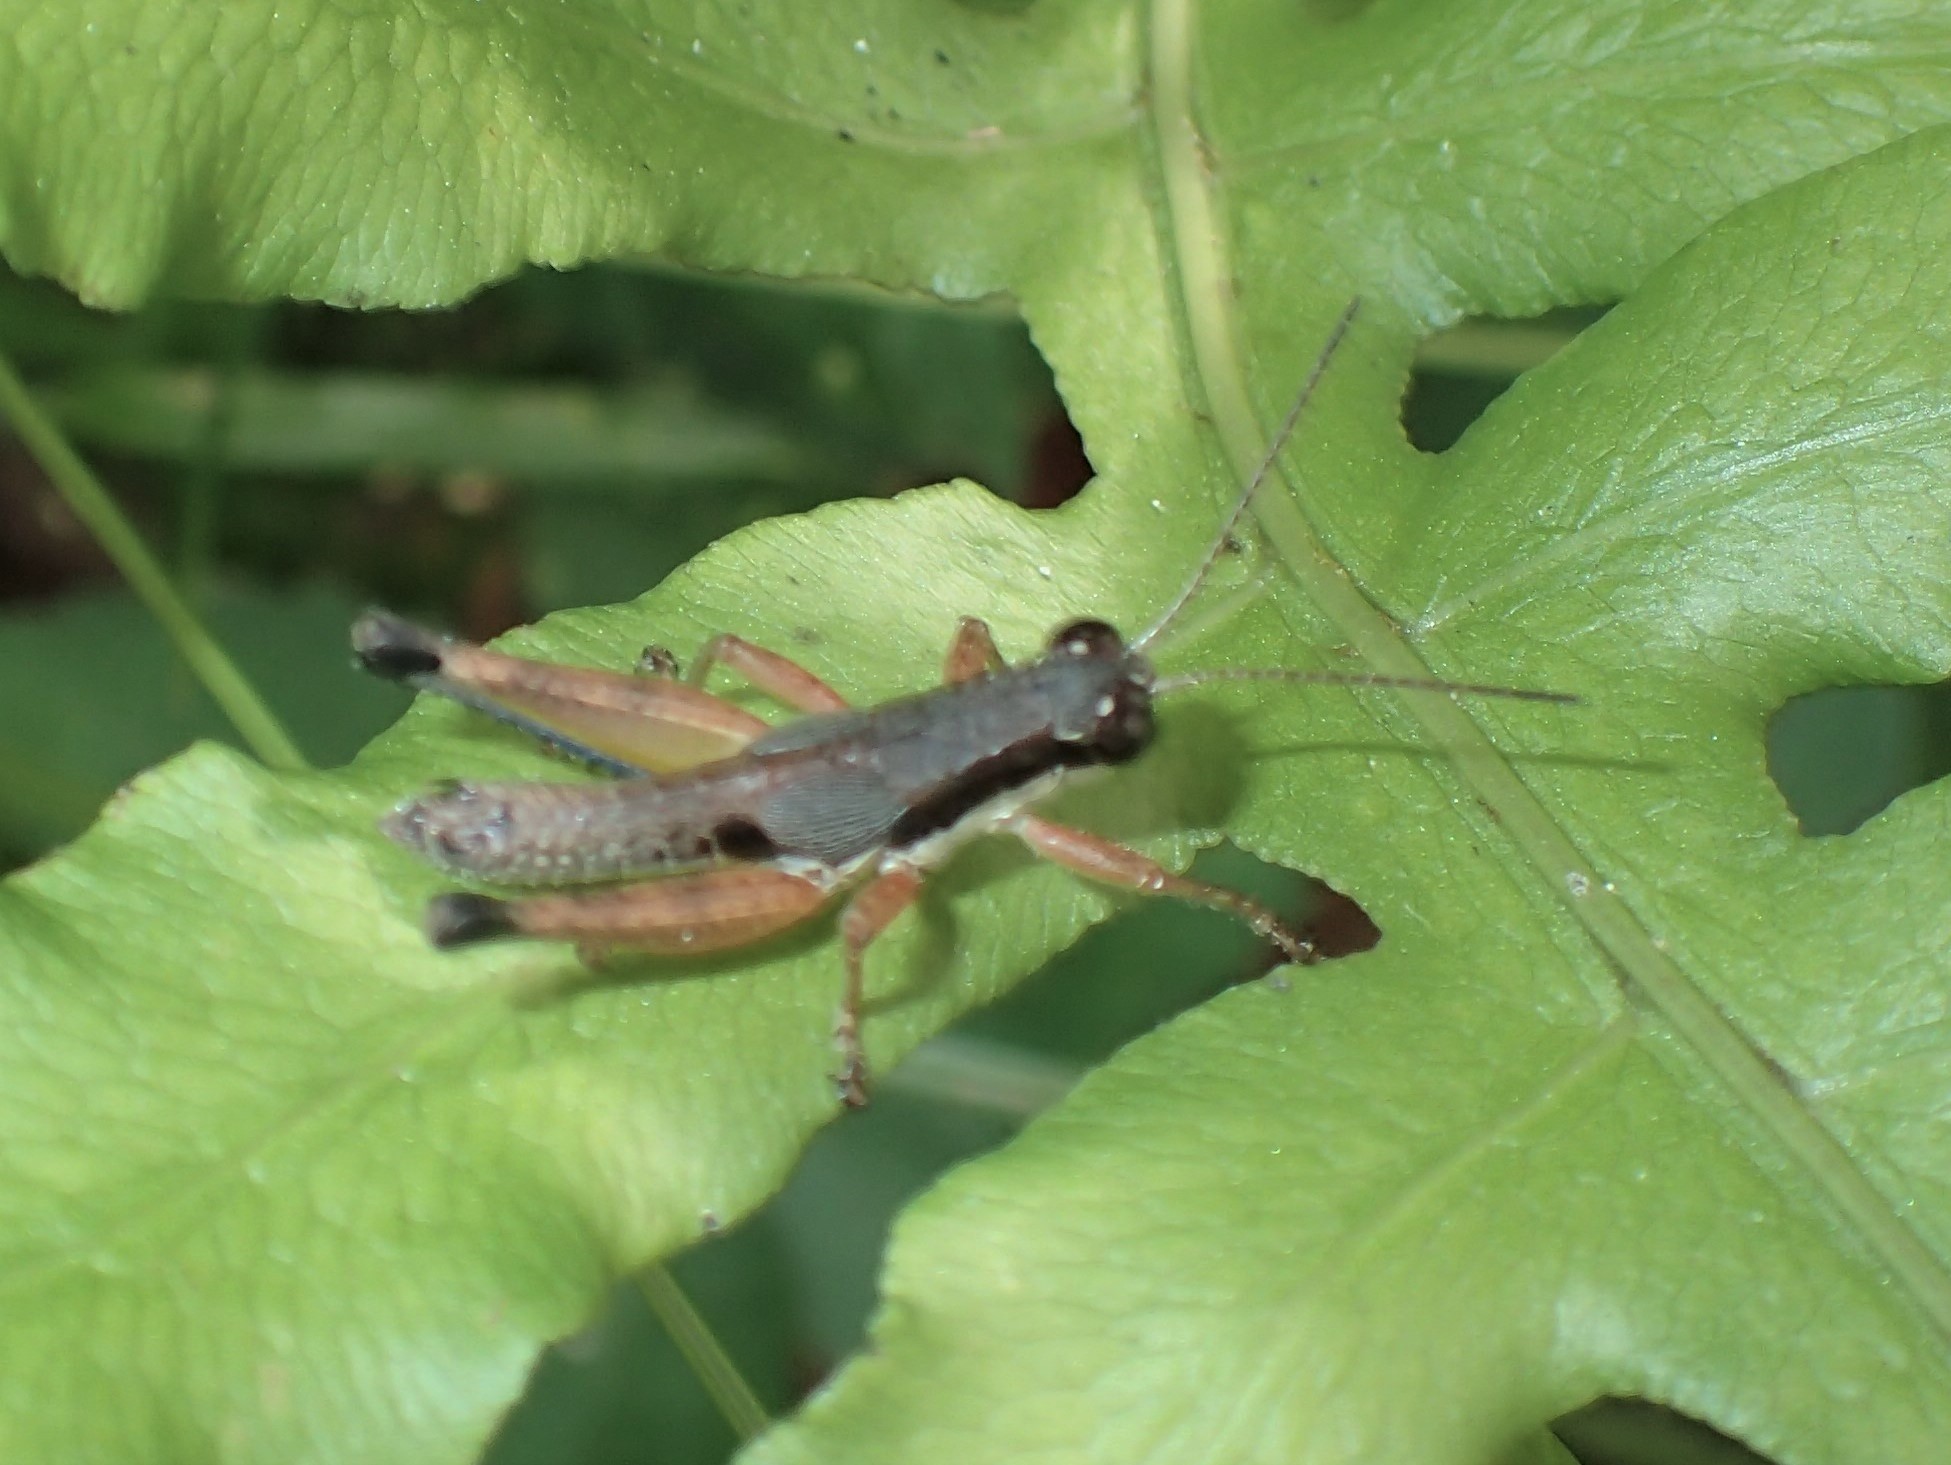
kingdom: Animalia
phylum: Arthropoda
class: Insecta
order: Orthoptera
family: Acrididae
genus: Melanoplus
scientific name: Melanoplus nossi
